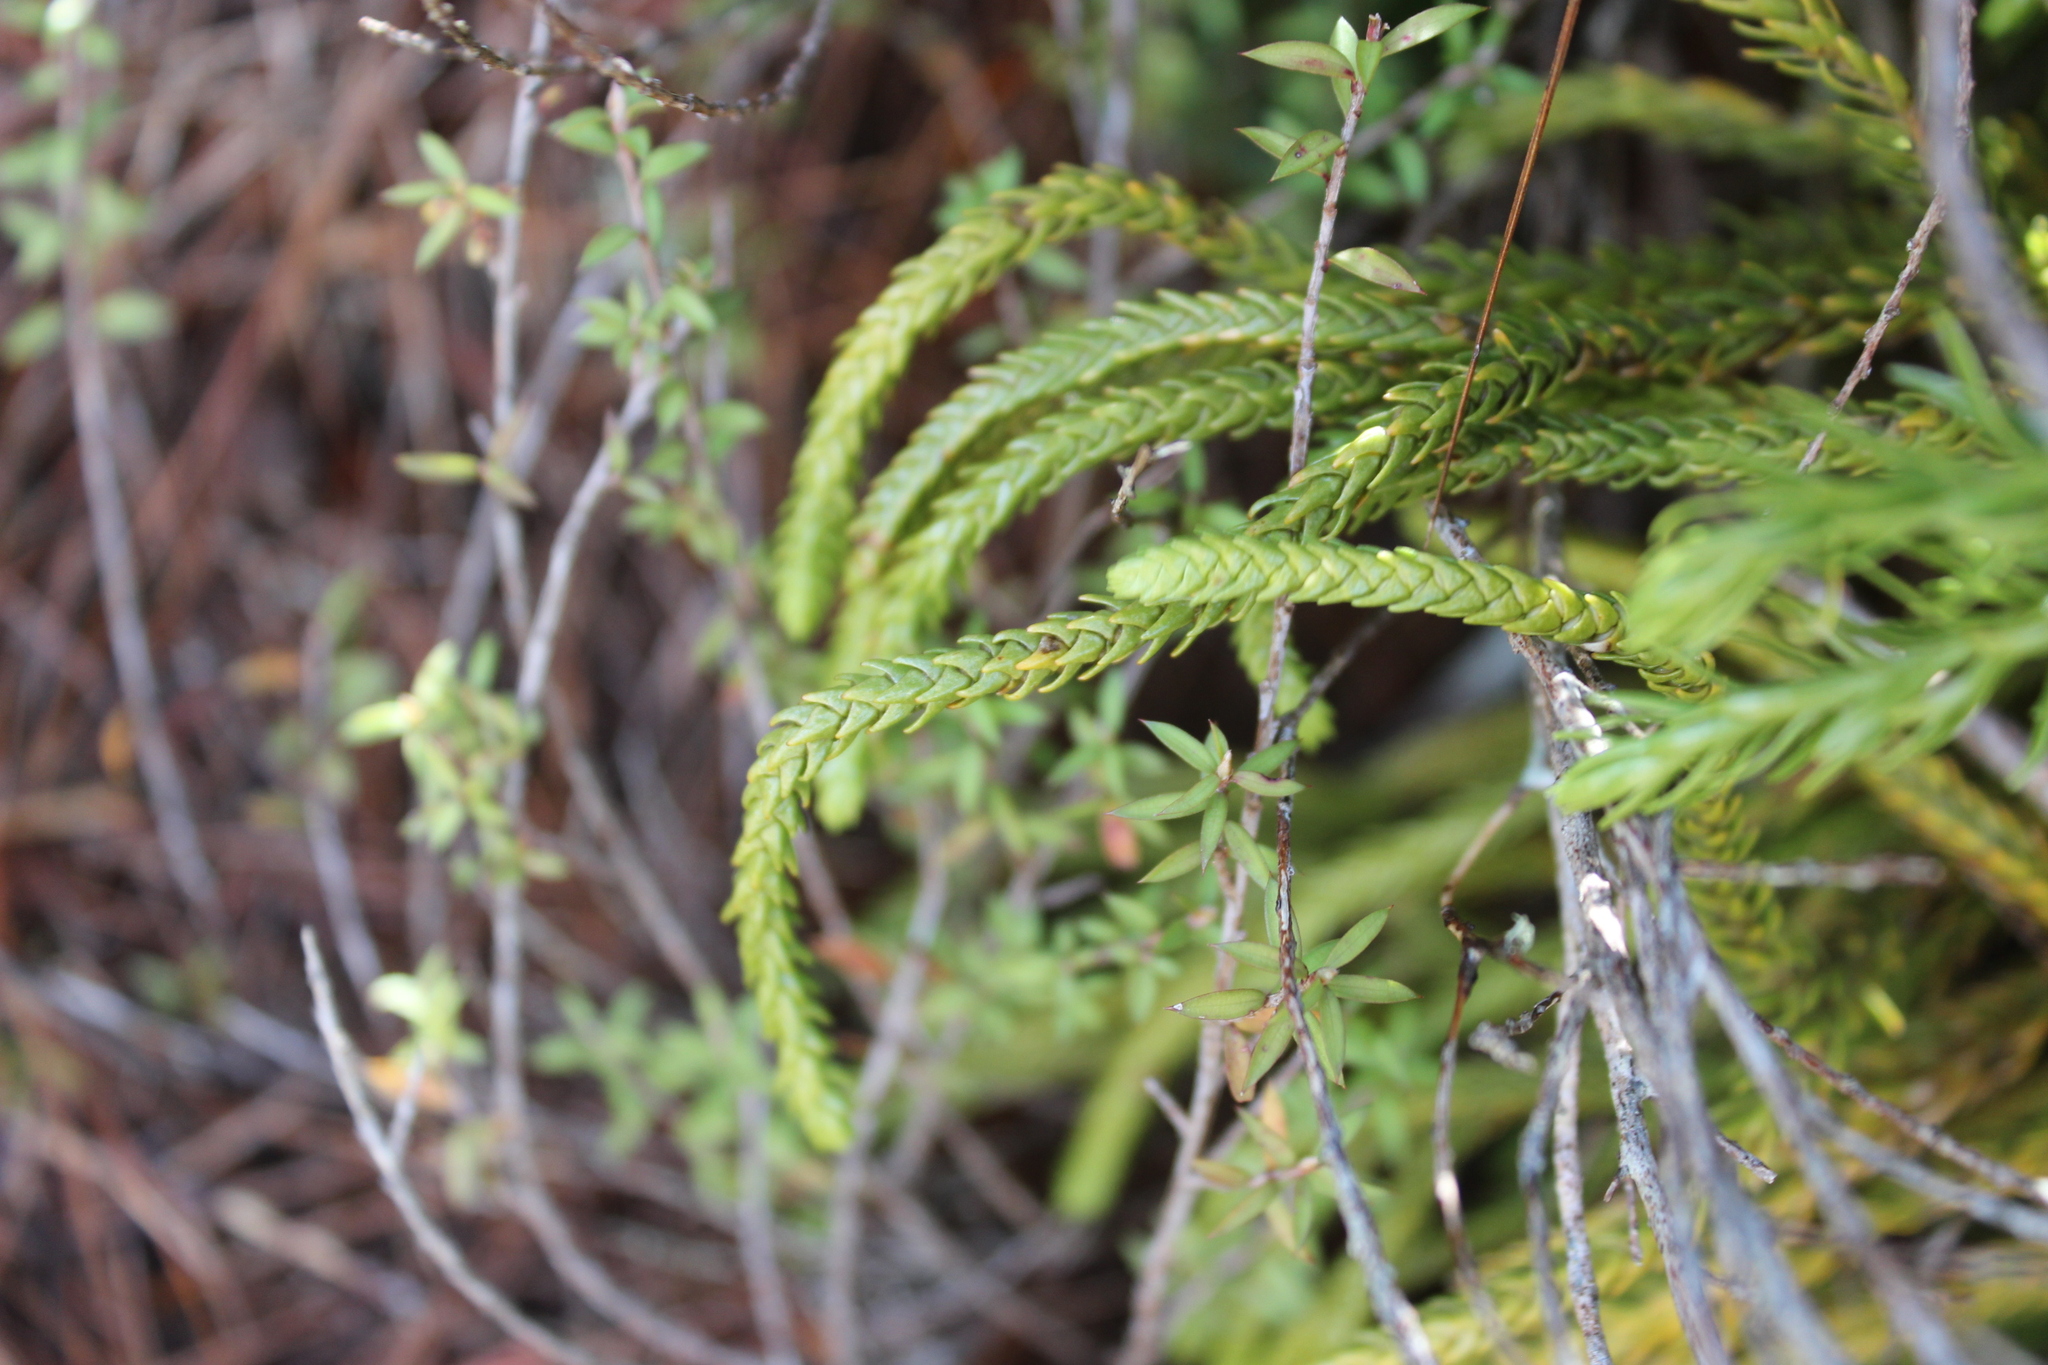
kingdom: Plantae
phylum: Tracheophyta
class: Lycopodiopsida
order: Lycopodiales
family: Lycopodiaceae
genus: Phlegmariurus
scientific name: Phlegmariurus varius
